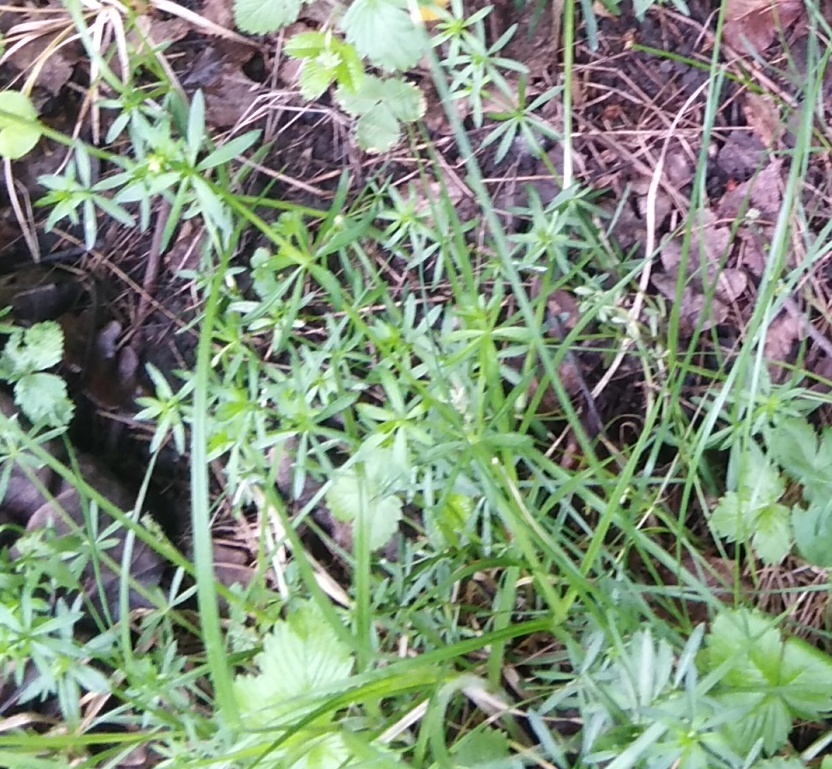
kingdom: Plantae
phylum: Tracheophyta
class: Magnoliopsida
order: Gentianales
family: Rubiaceae
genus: Galium
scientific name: Galium mollugo
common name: Hedge bedstraw
